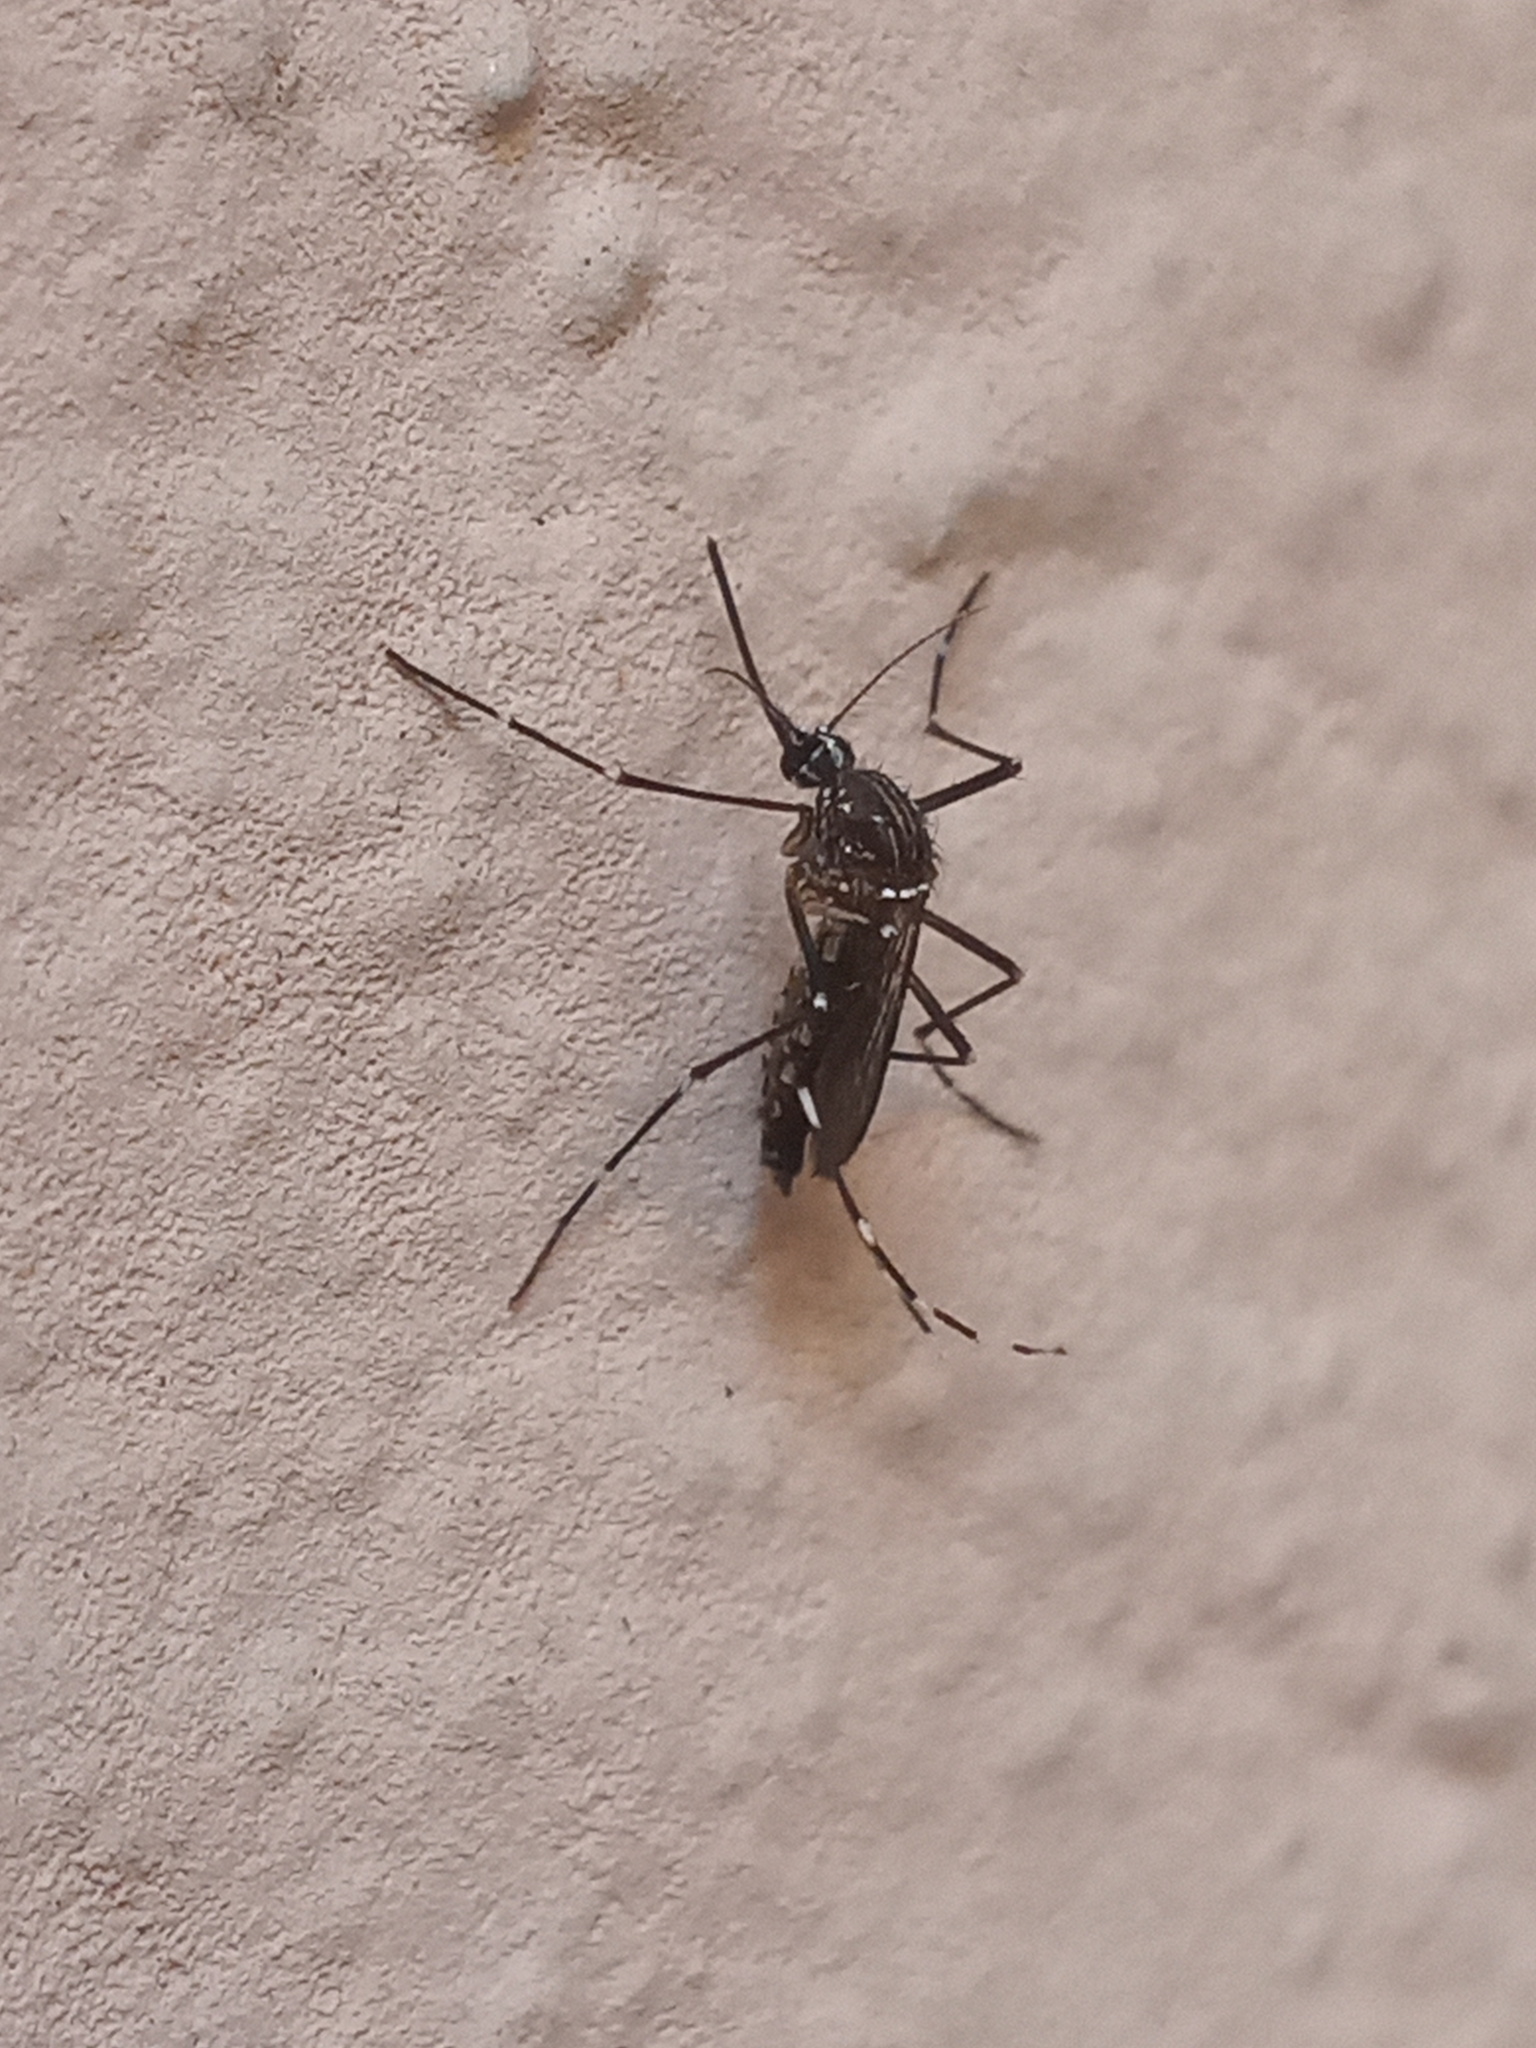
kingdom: Animalia
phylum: Arthropoda
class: Insecta
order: Diptera
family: Culicidae
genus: Aedes
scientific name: Aedes aegypti
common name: Yellow fever mosquito
